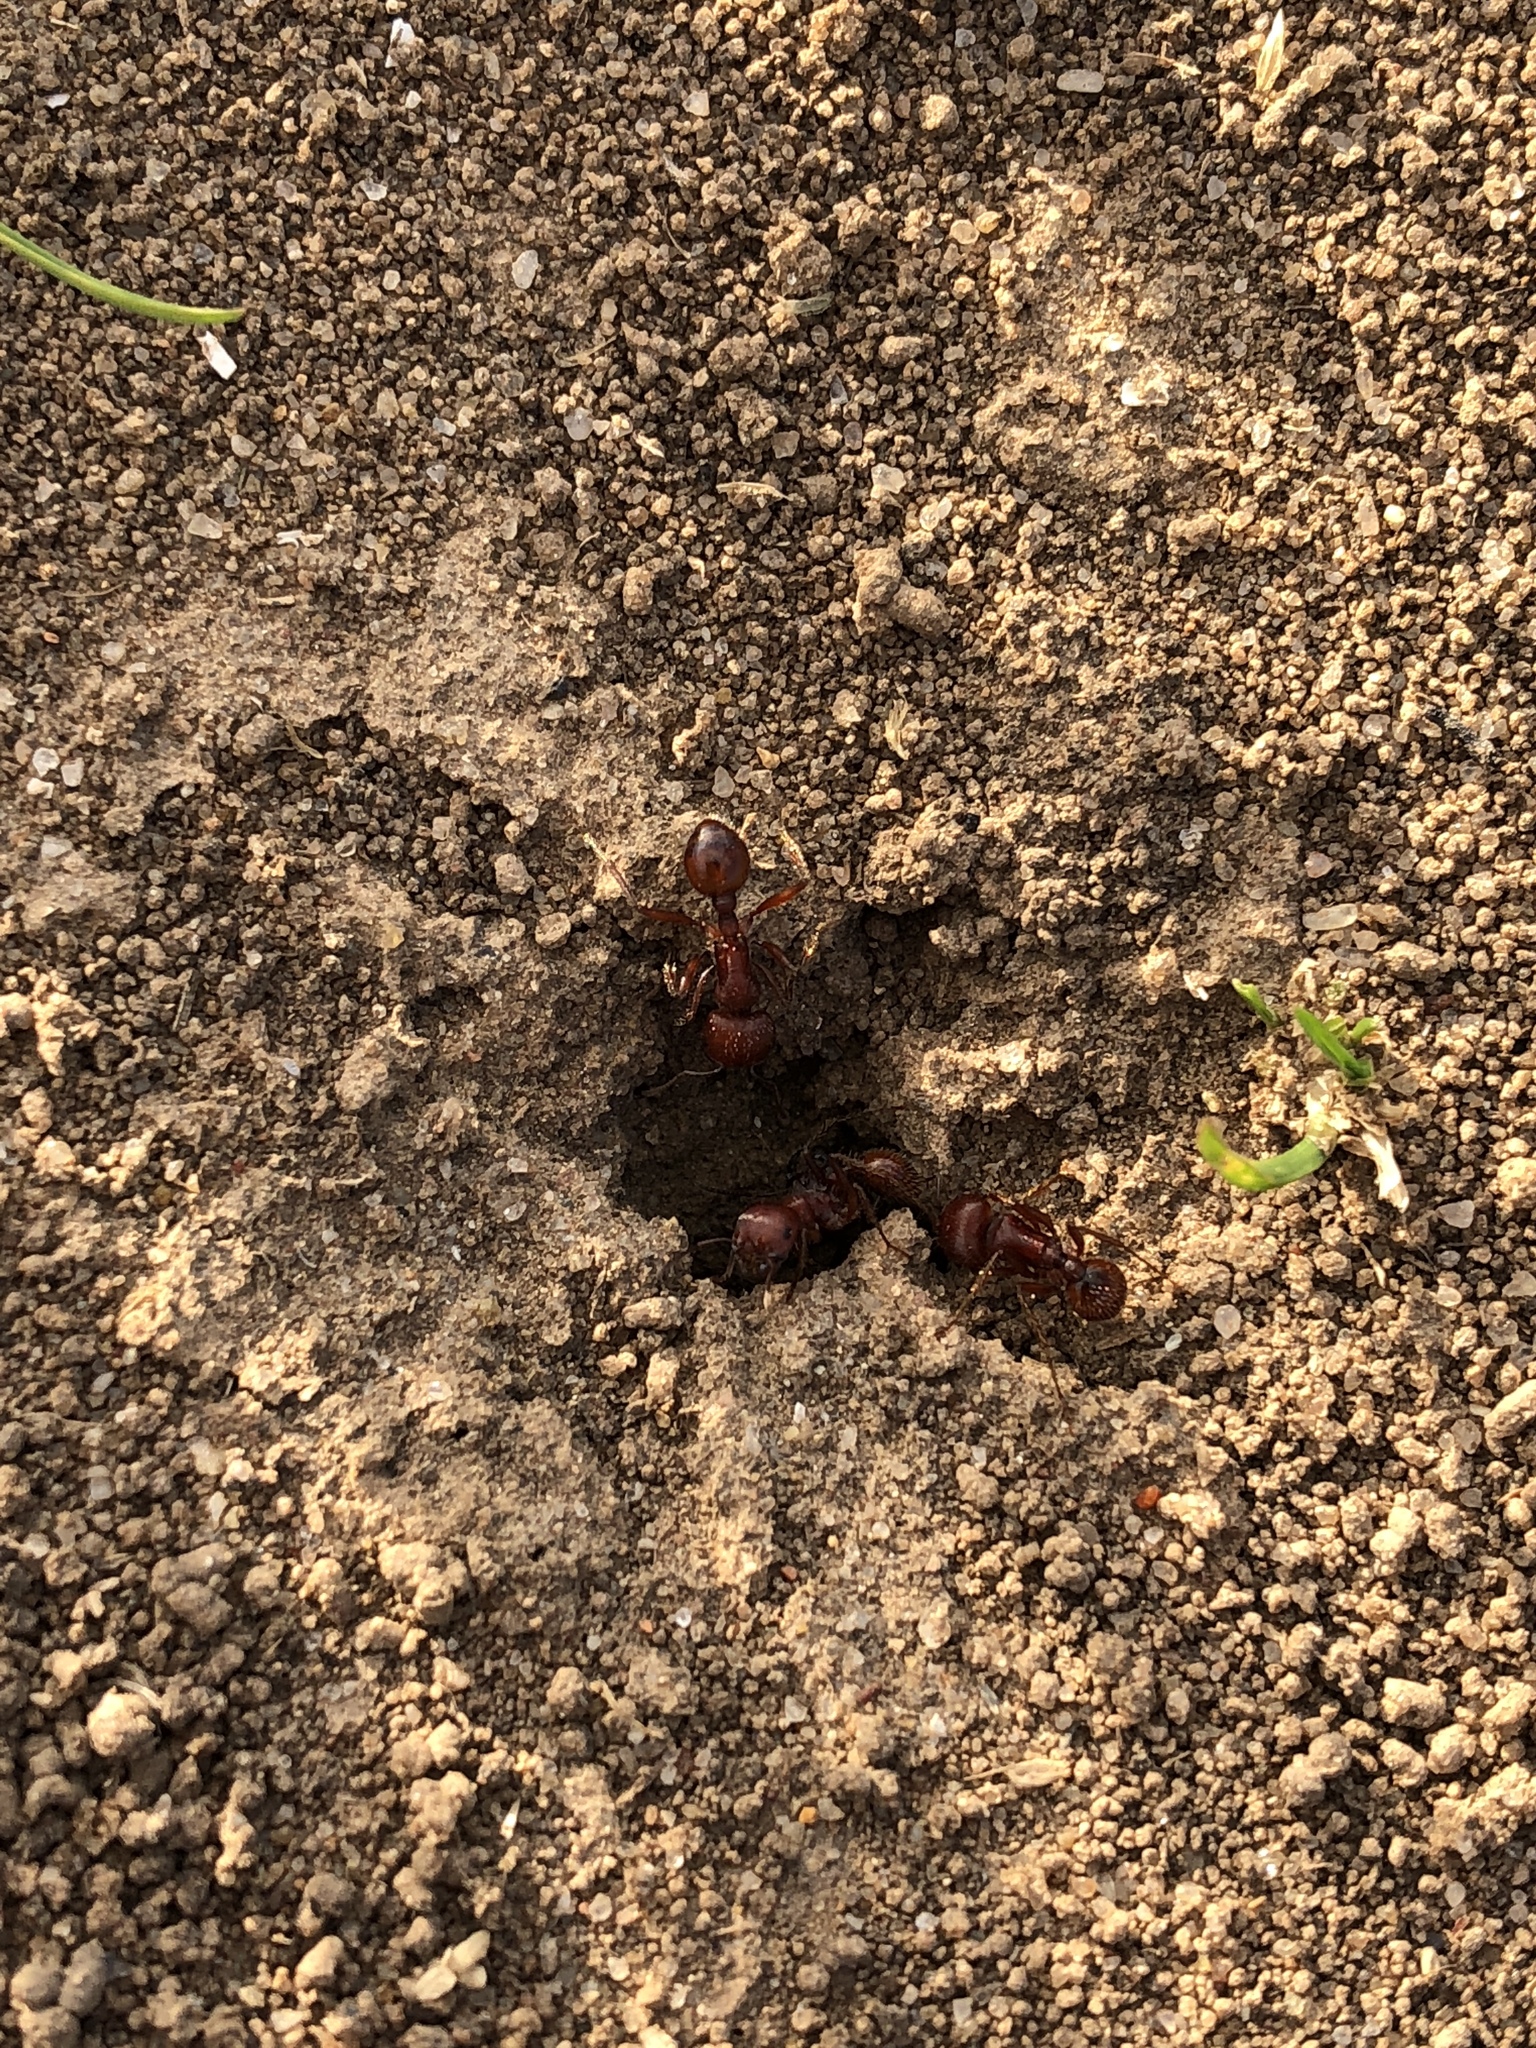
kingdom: Animalia
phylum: Arthropoda
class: Insecta
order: Hymenoptera
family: Formicidae
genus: Pogonomyrmex
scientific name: Pogonomyrmex barbatus
